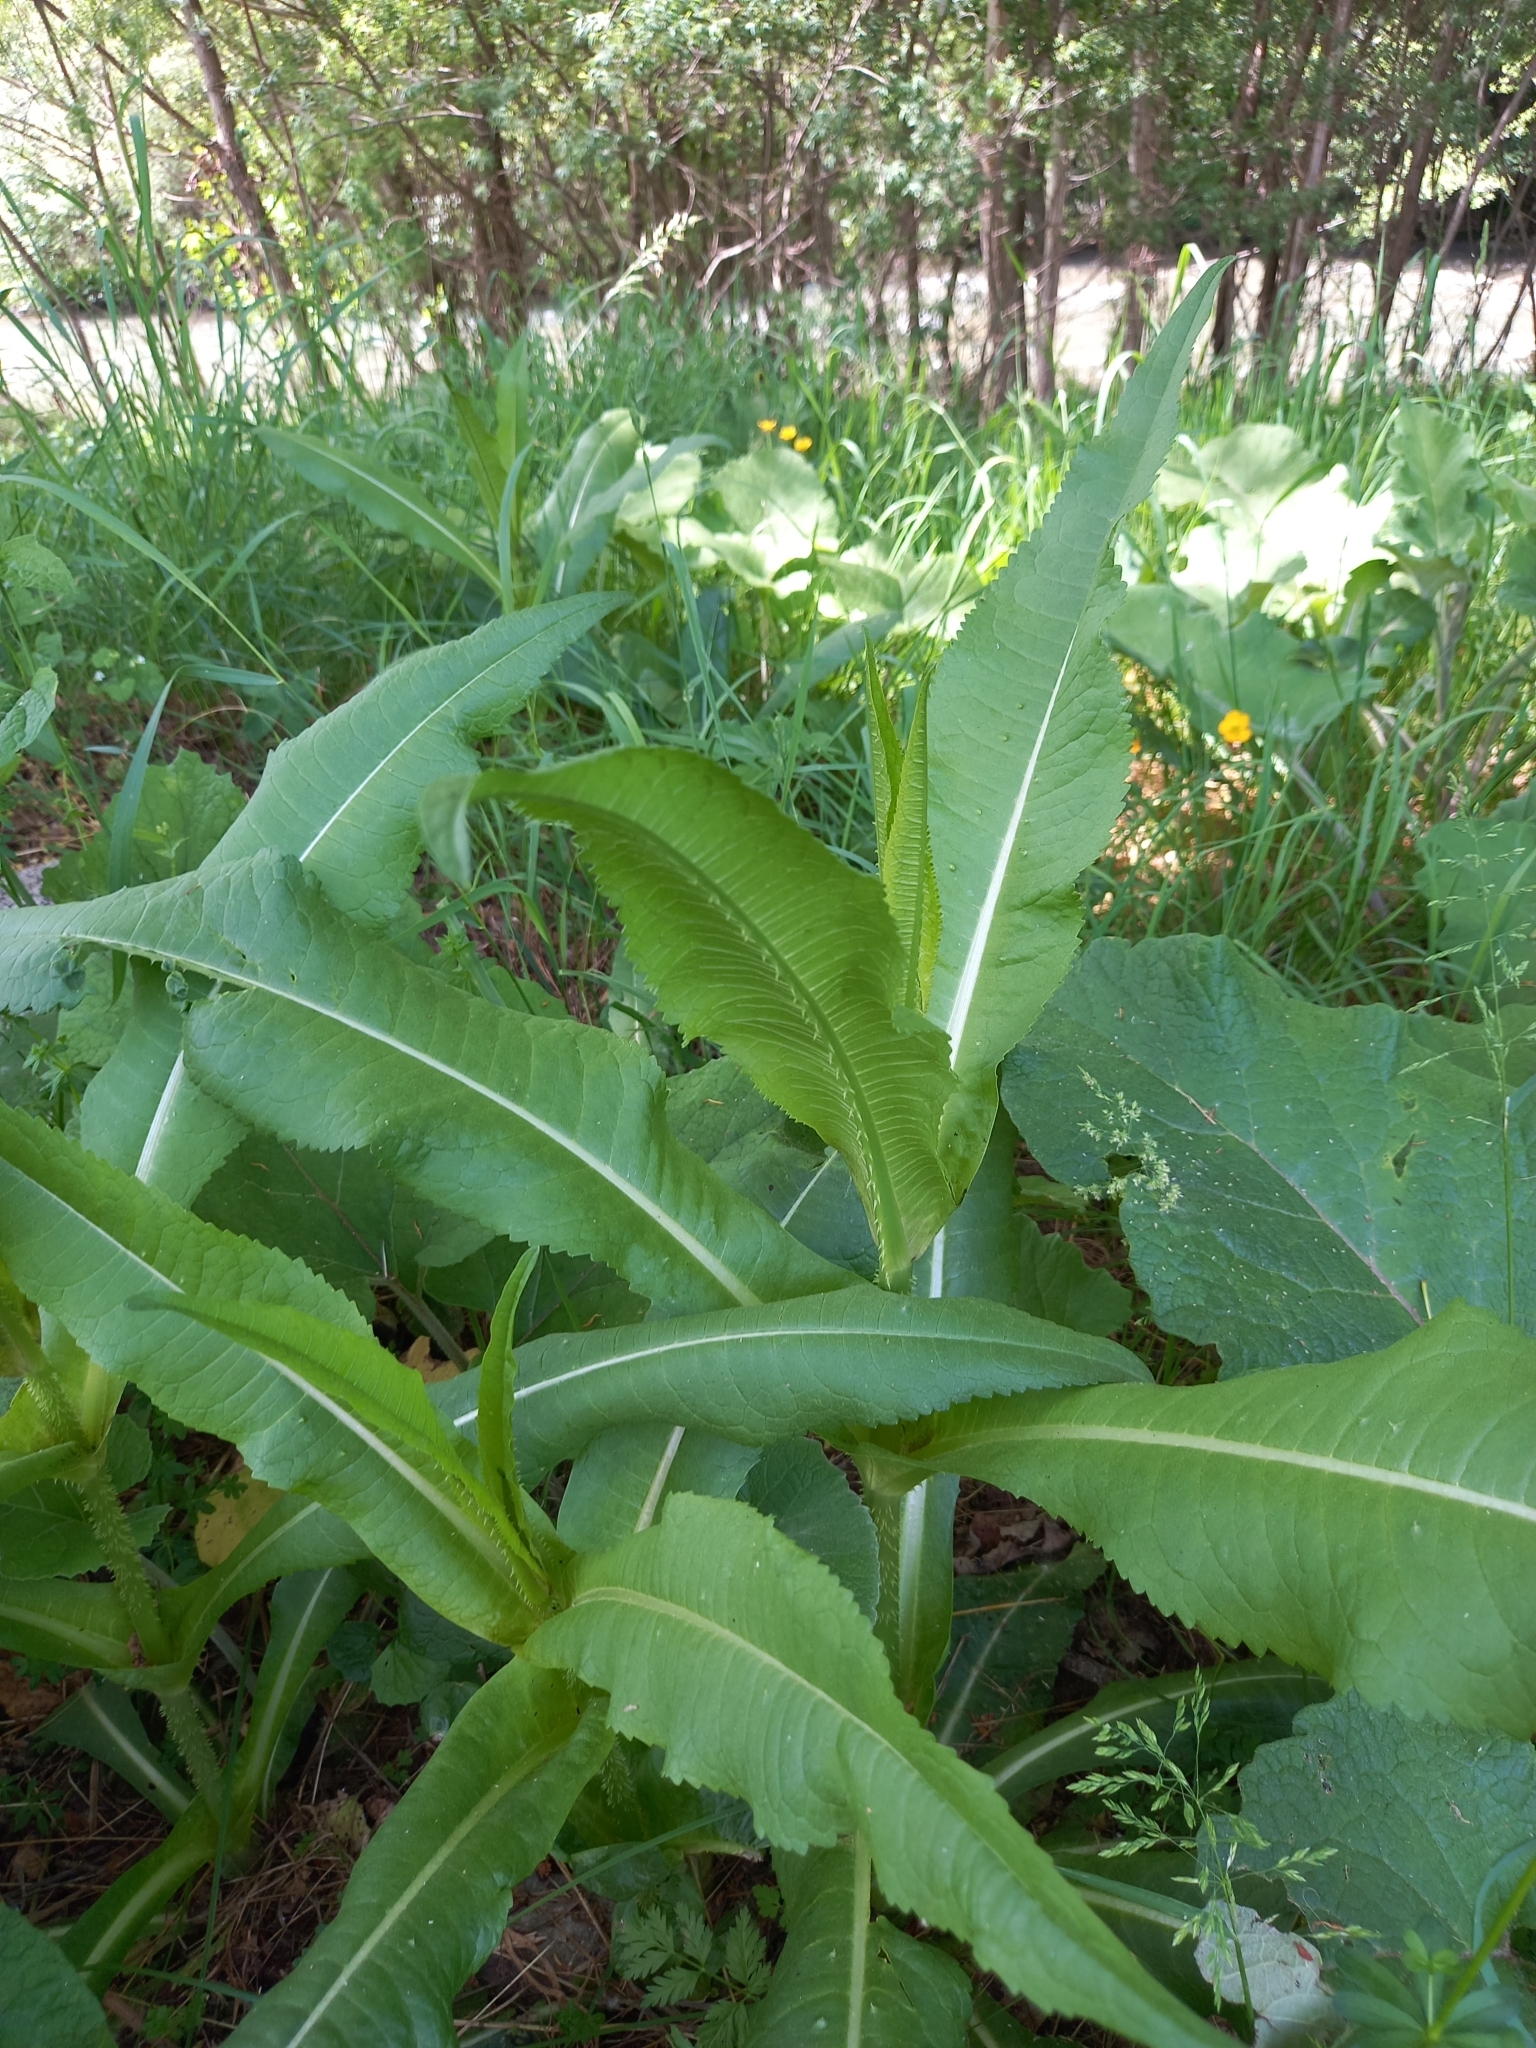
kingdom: Plantae
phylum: Tracheophyta
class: Magnoliopsida
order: Dipsacales
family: Caprifoliaceae
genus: Dipsacus
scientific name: Dipsacus fullonum
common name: Teasel
